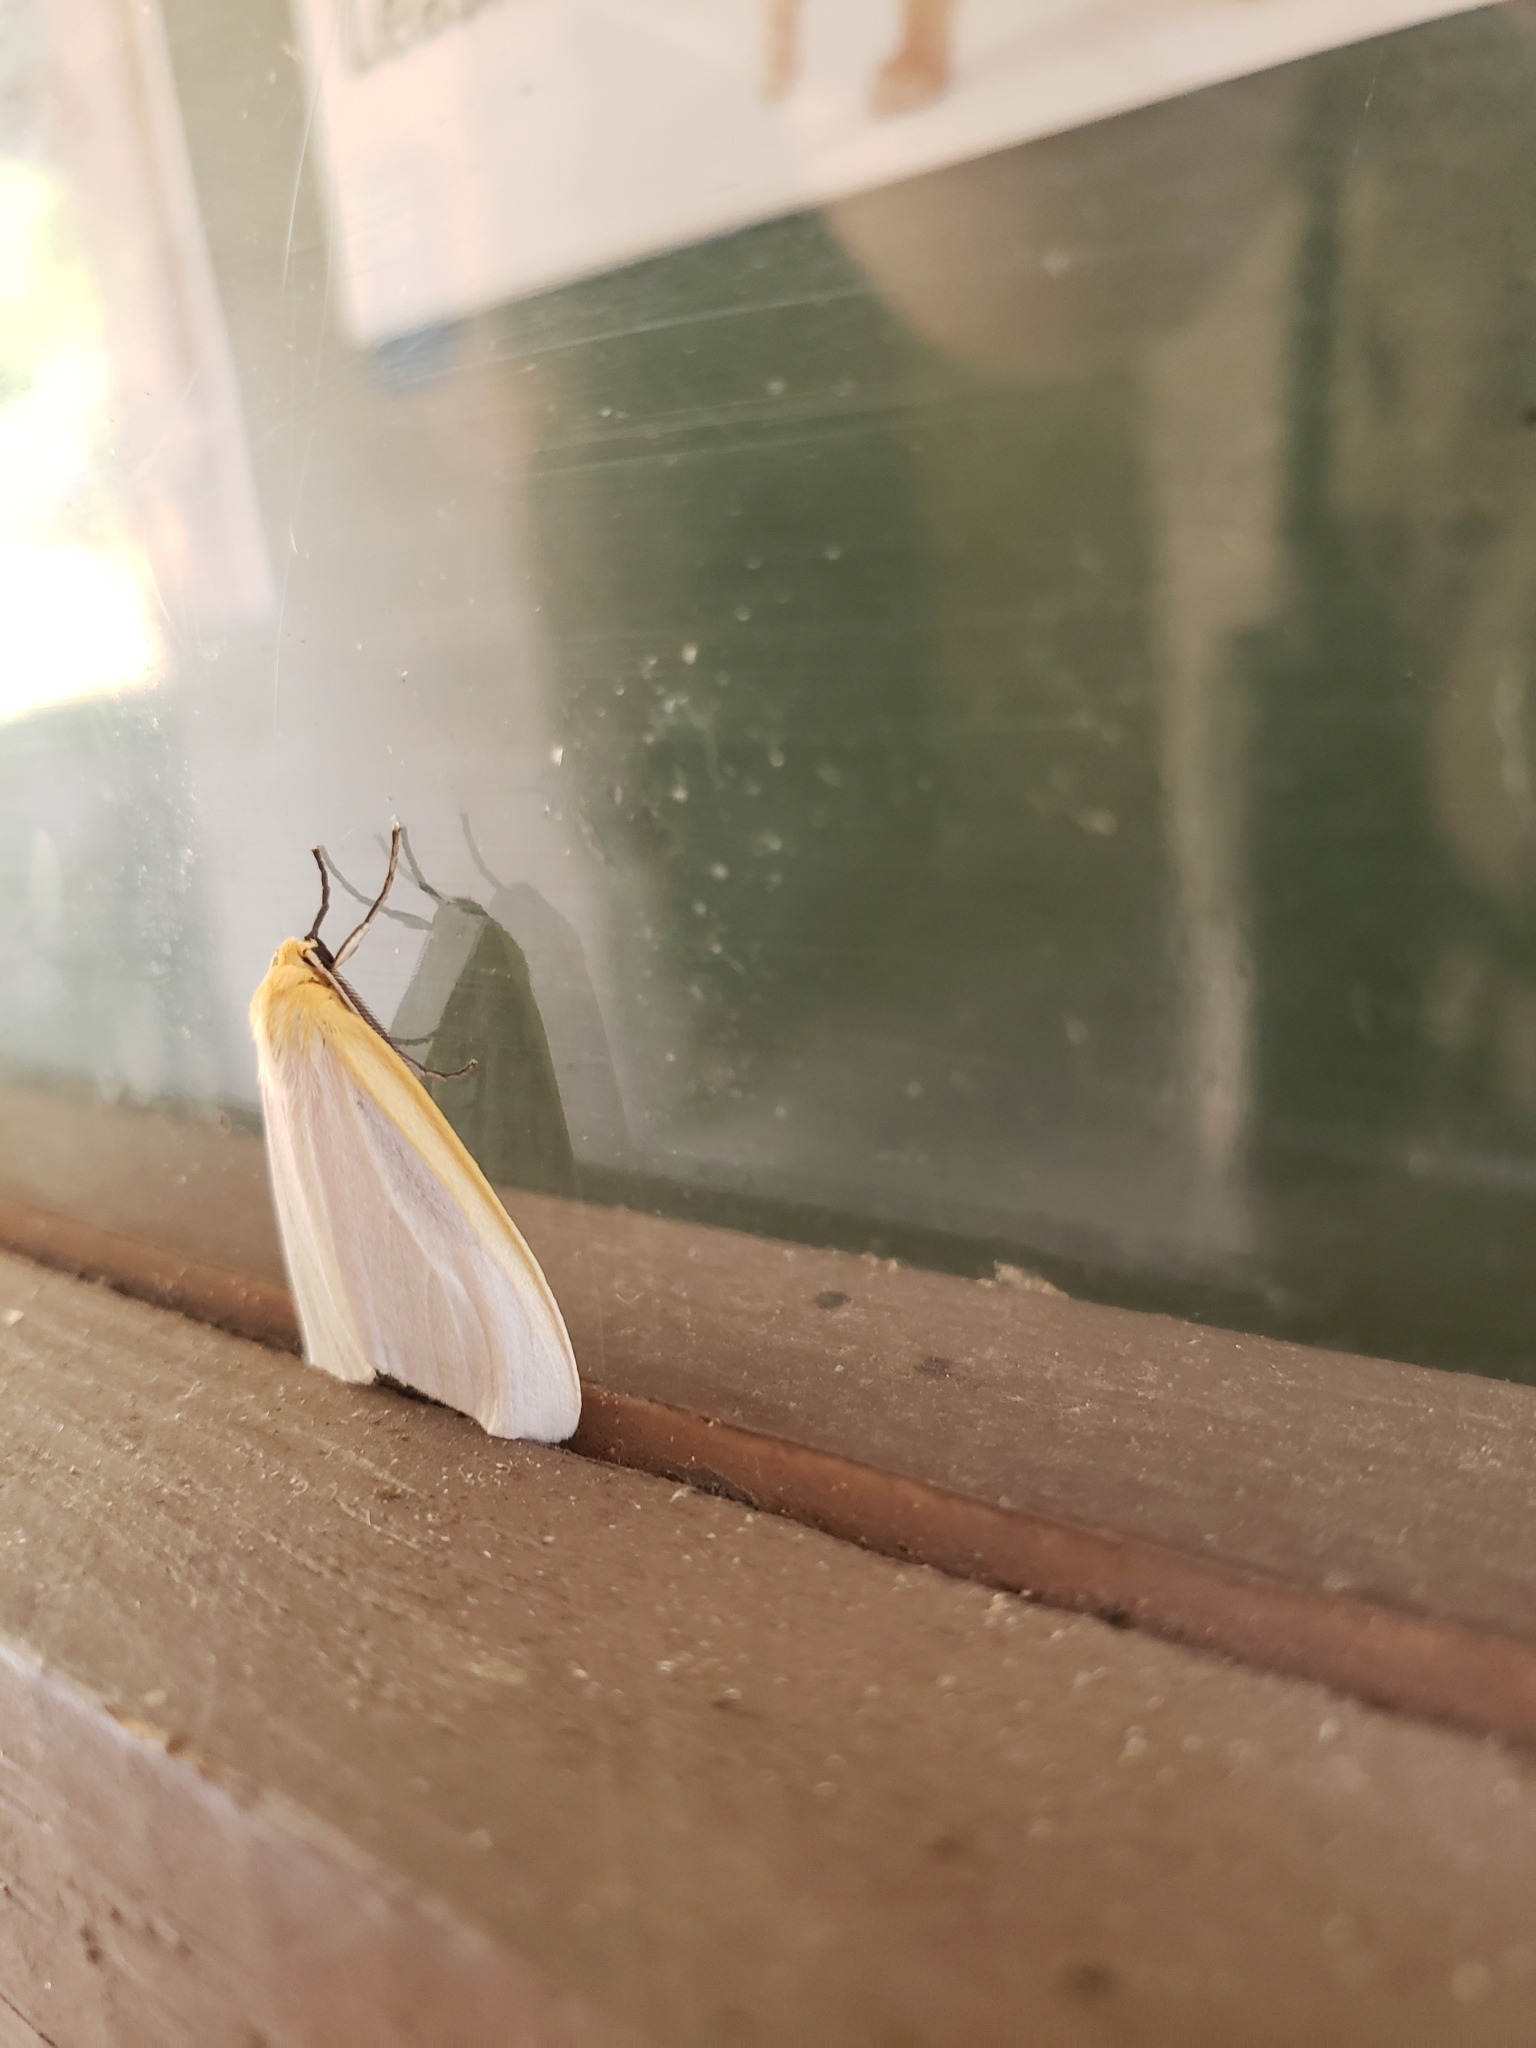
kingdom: Animalia
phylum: Arthropoda
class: Insecta
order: Lepidoptera
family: Erebidae
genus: Cycnia
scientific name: Cycnia tenera
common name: Delicate cycnia moth
